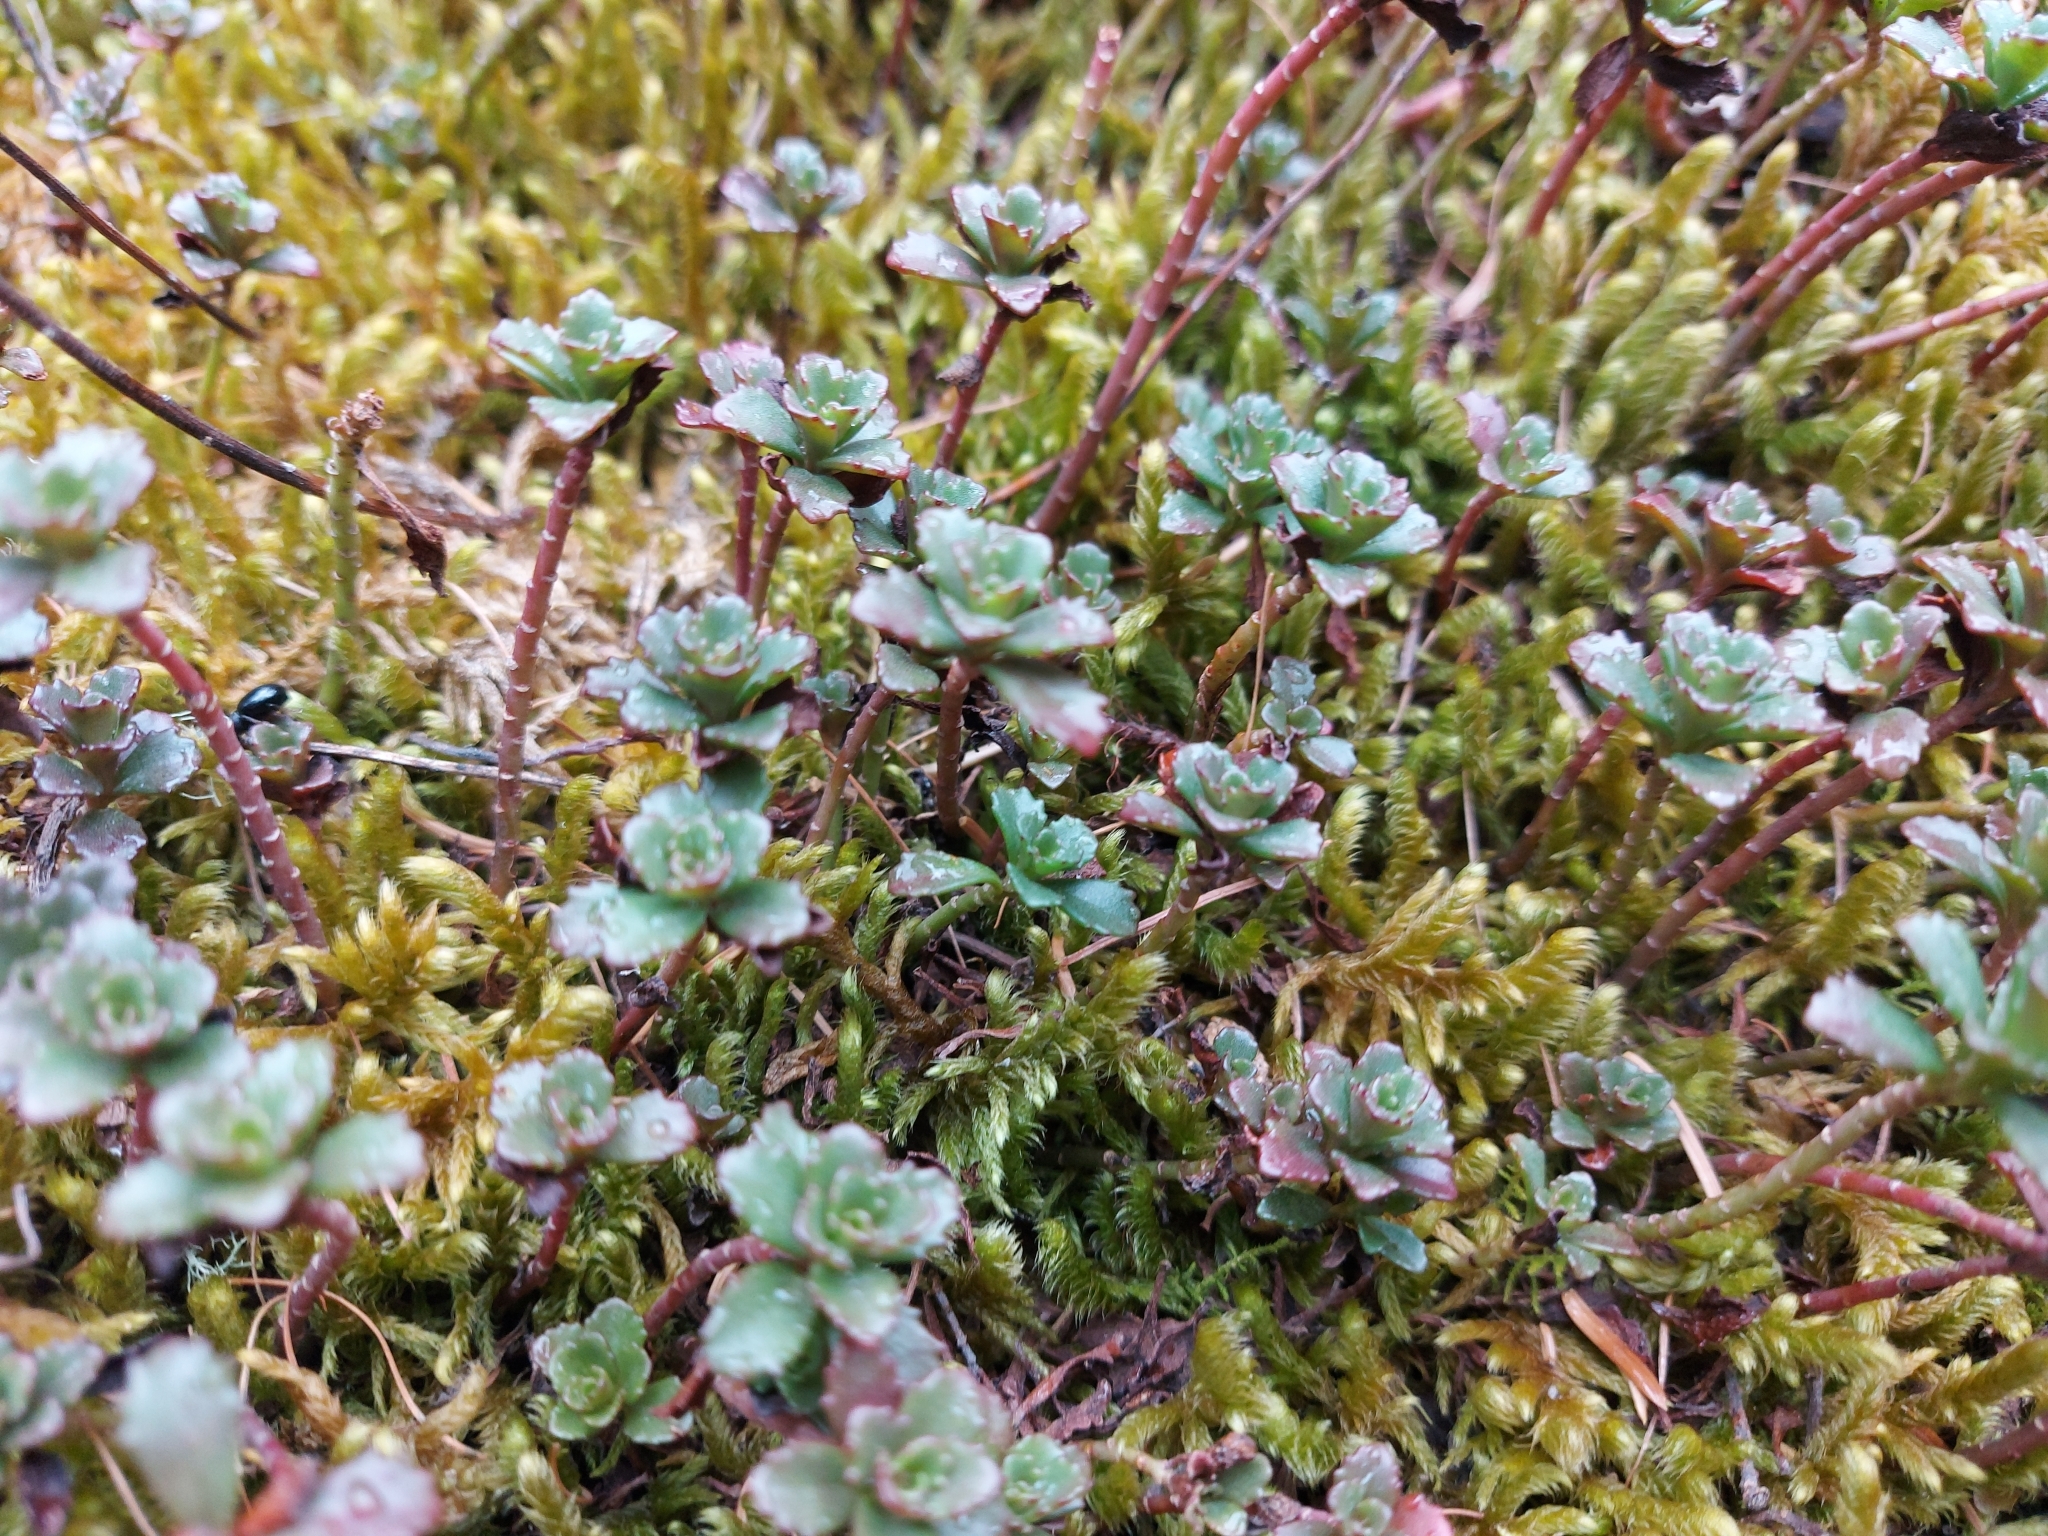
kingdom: Plantae
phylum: Tracheophyta
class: Magnoliopsida
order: Saxifragales
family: Crassulaceae
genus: Phedimus
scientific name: Phedimus hybridus
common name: Hybrid stonecrop
